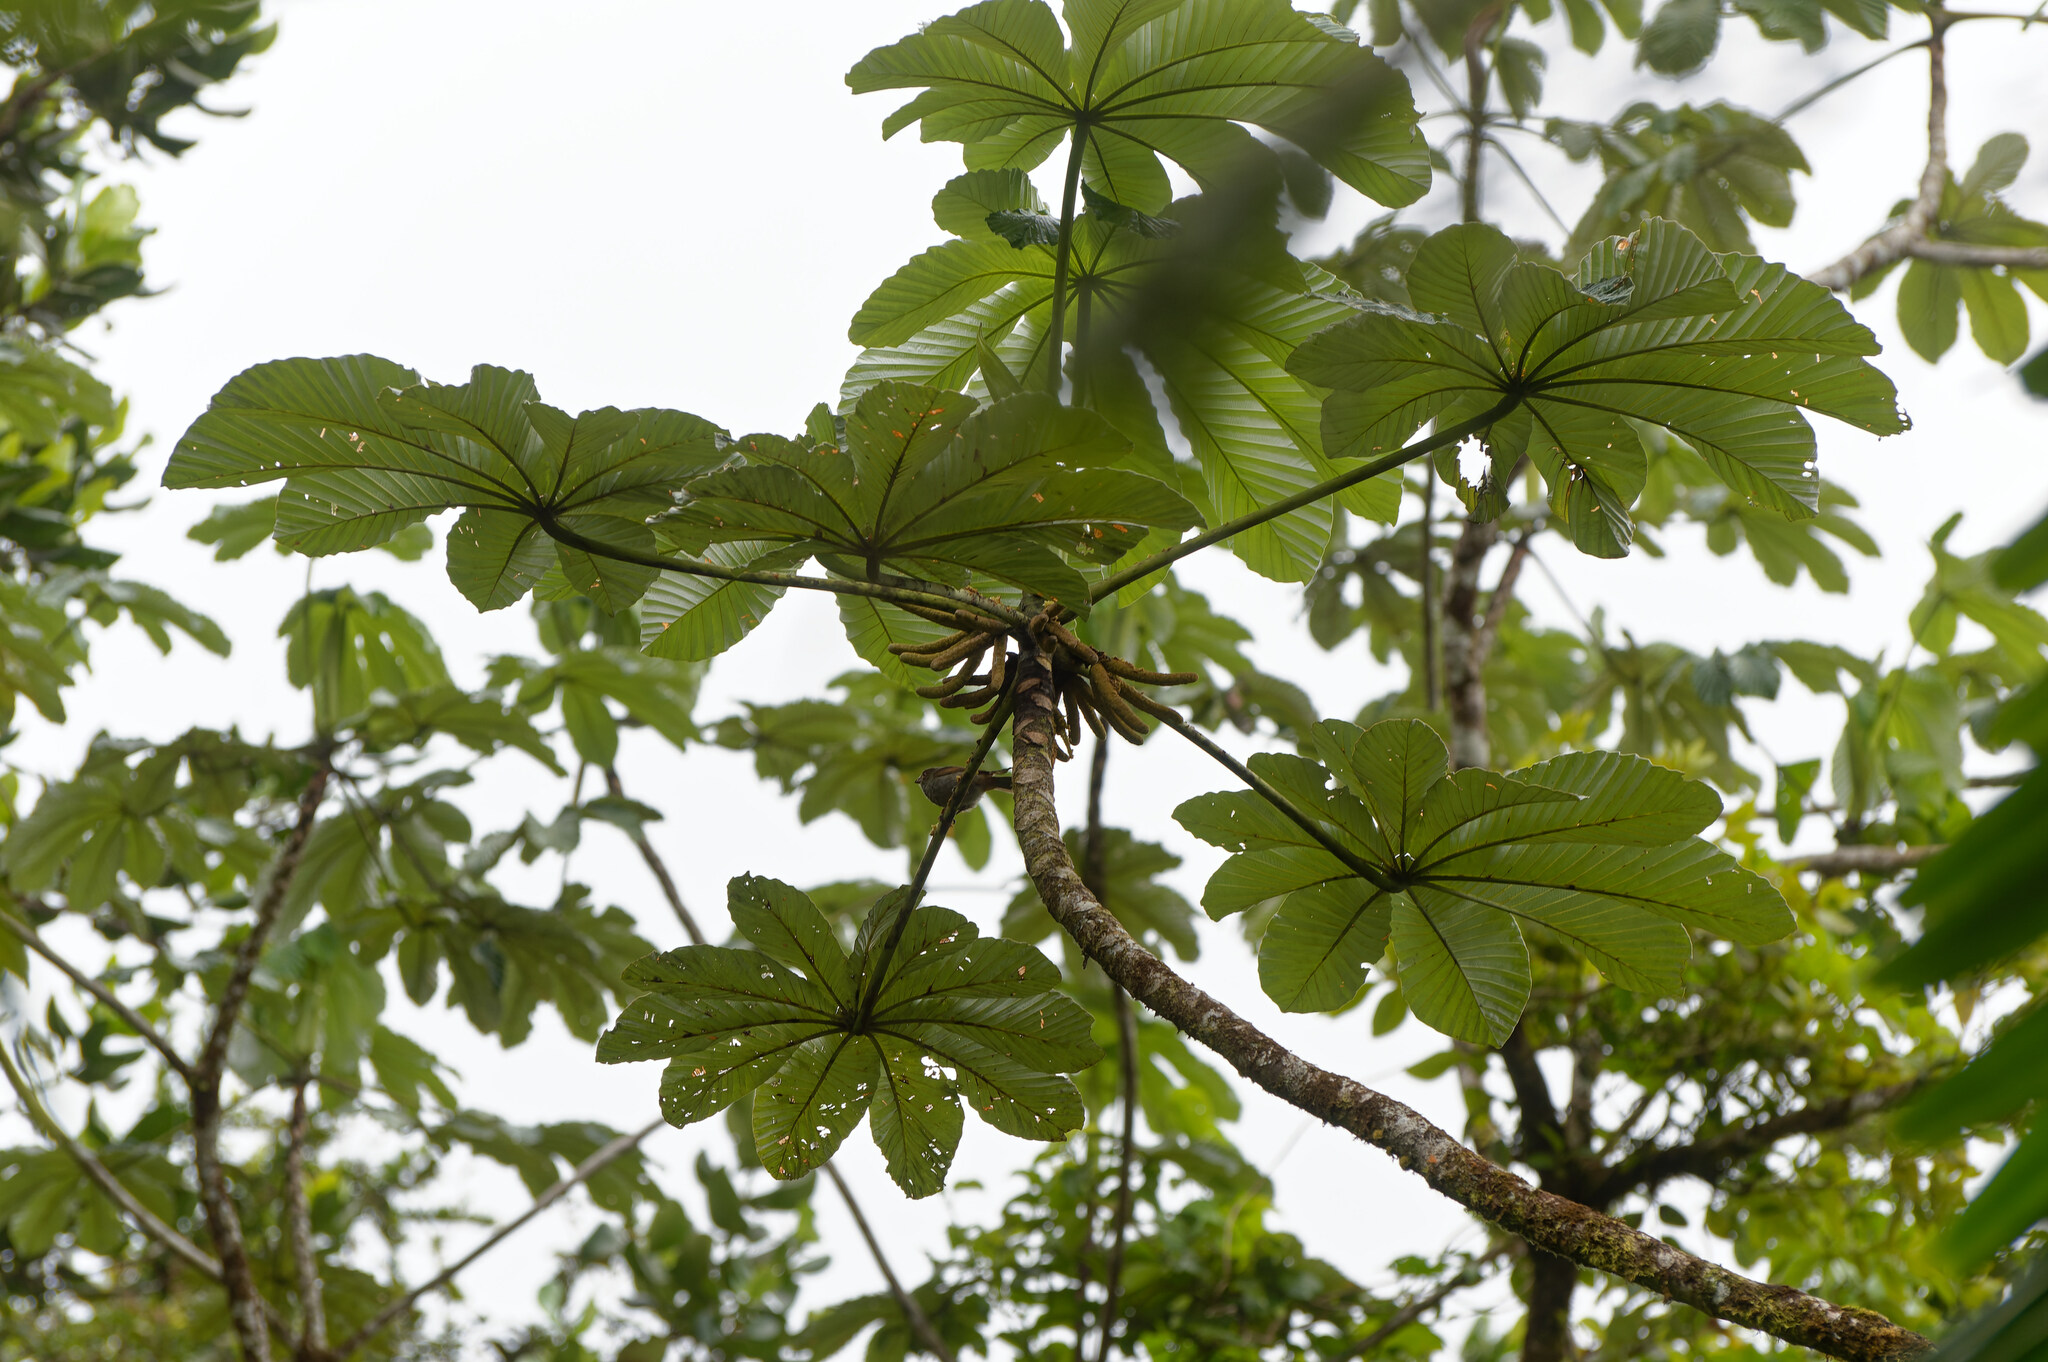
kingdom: Plantae
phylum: Tracheophyta
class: Magnoliopsida
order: Rosales
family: Urticaceae
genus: Cecropia
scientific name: Cecropia schreberiana
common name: Trumpet tree
